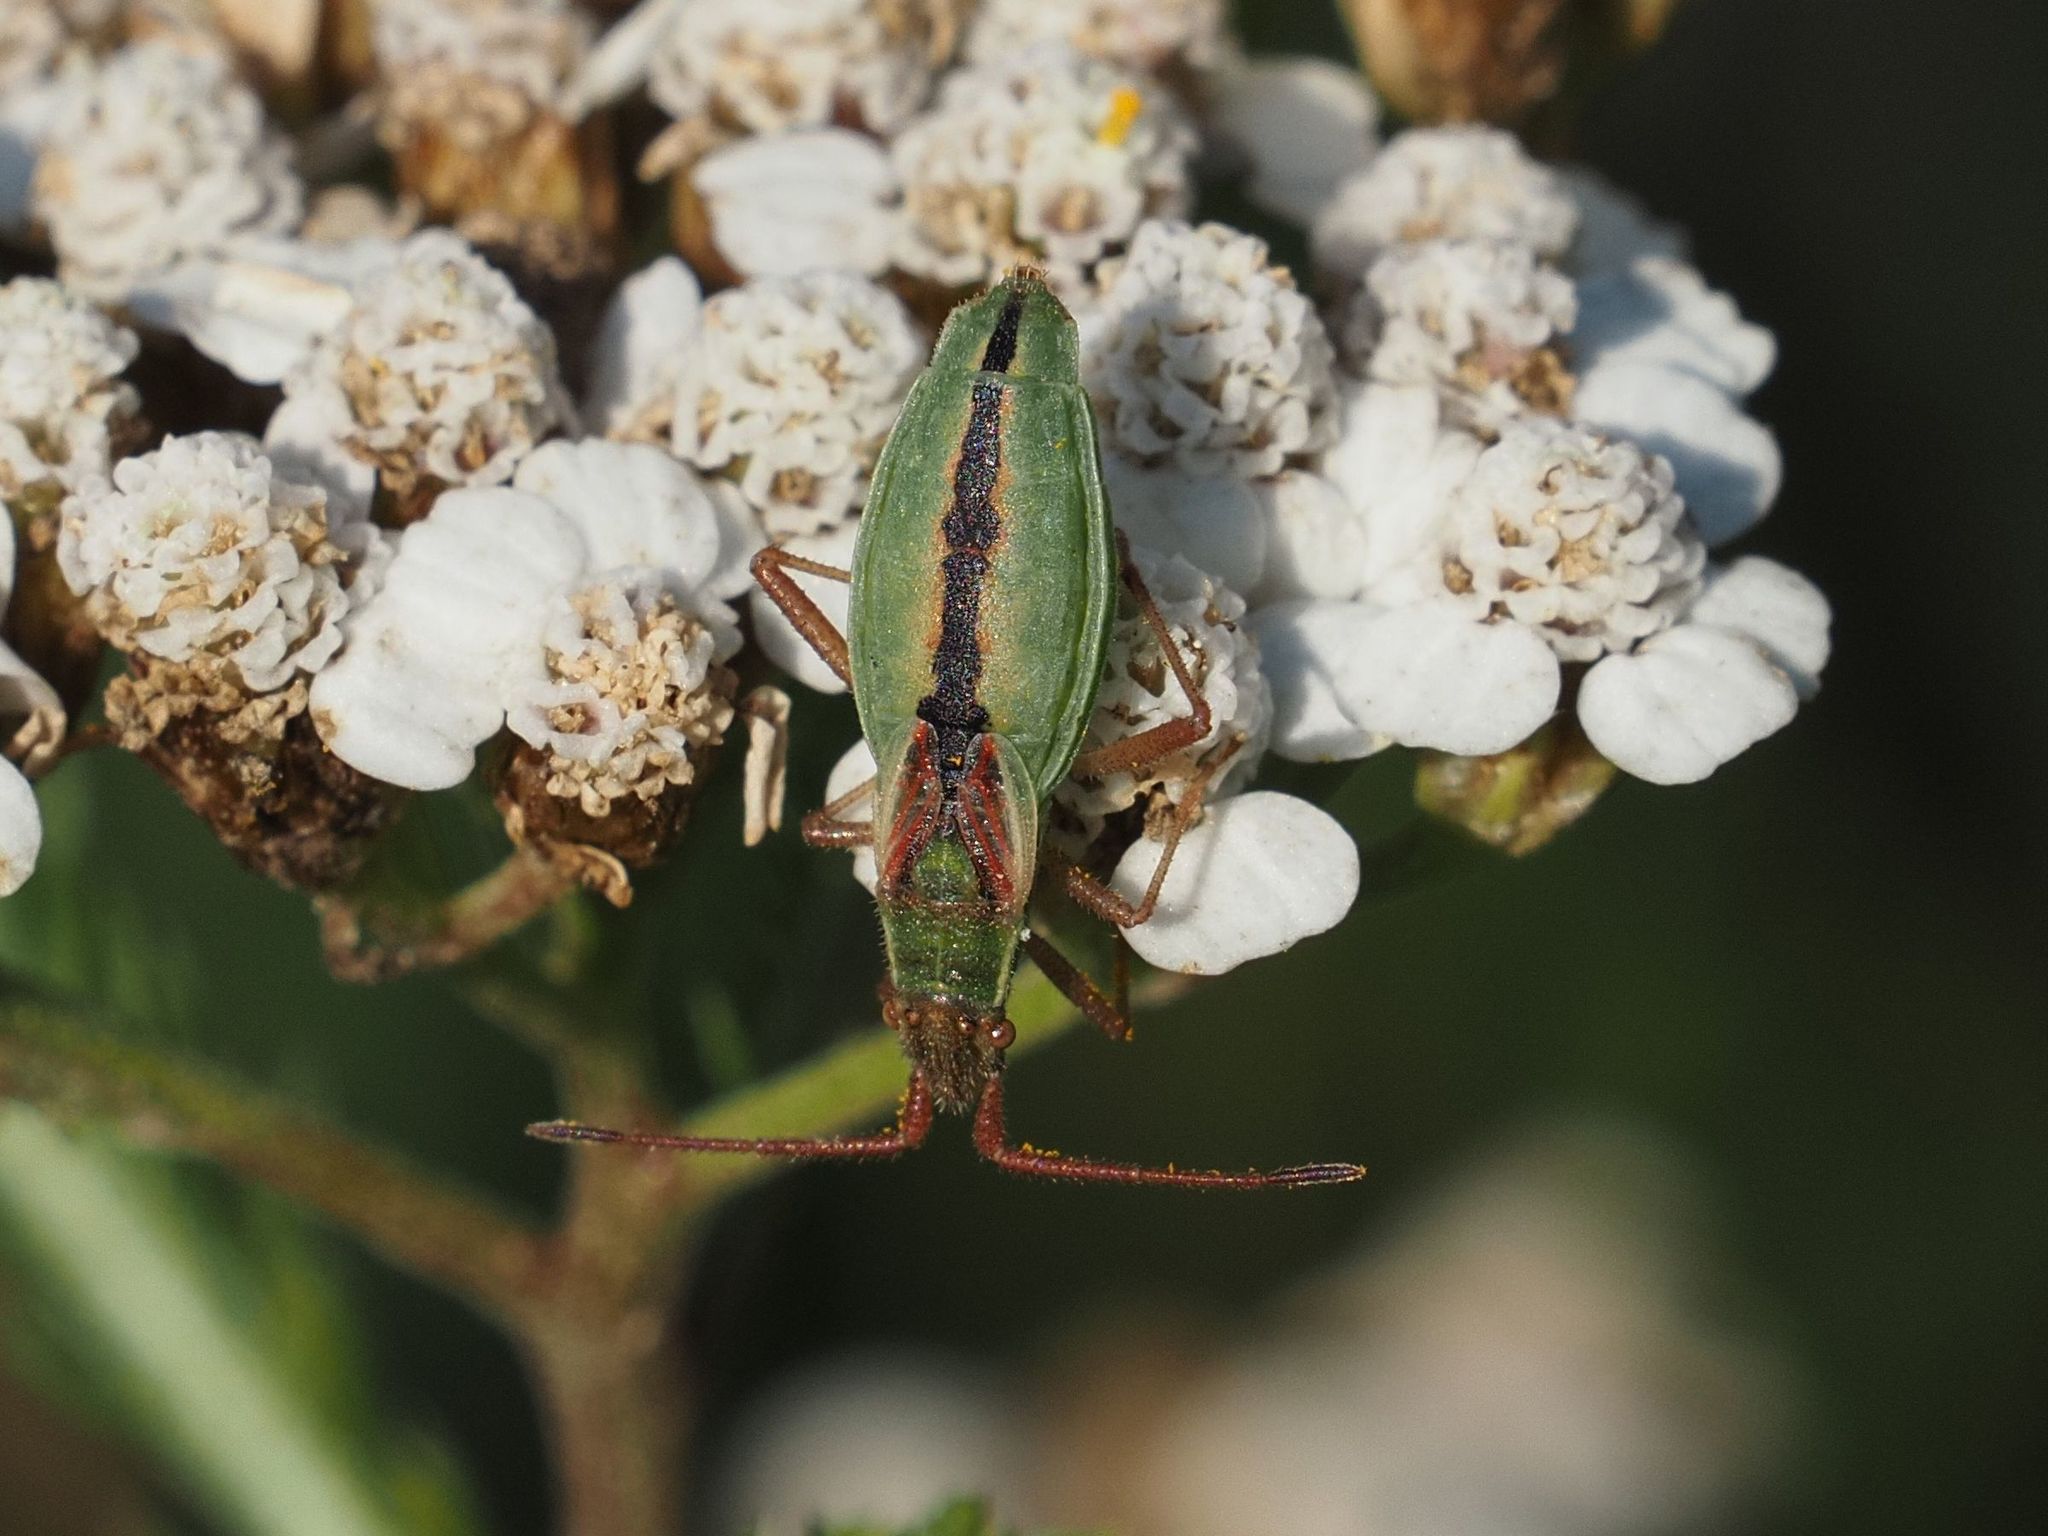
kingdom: Animalia
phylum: Arthropoda
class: Insecta
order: Hemiptera
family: Rhopalidae
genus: Myrmus
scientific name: Myrmus miriformis
